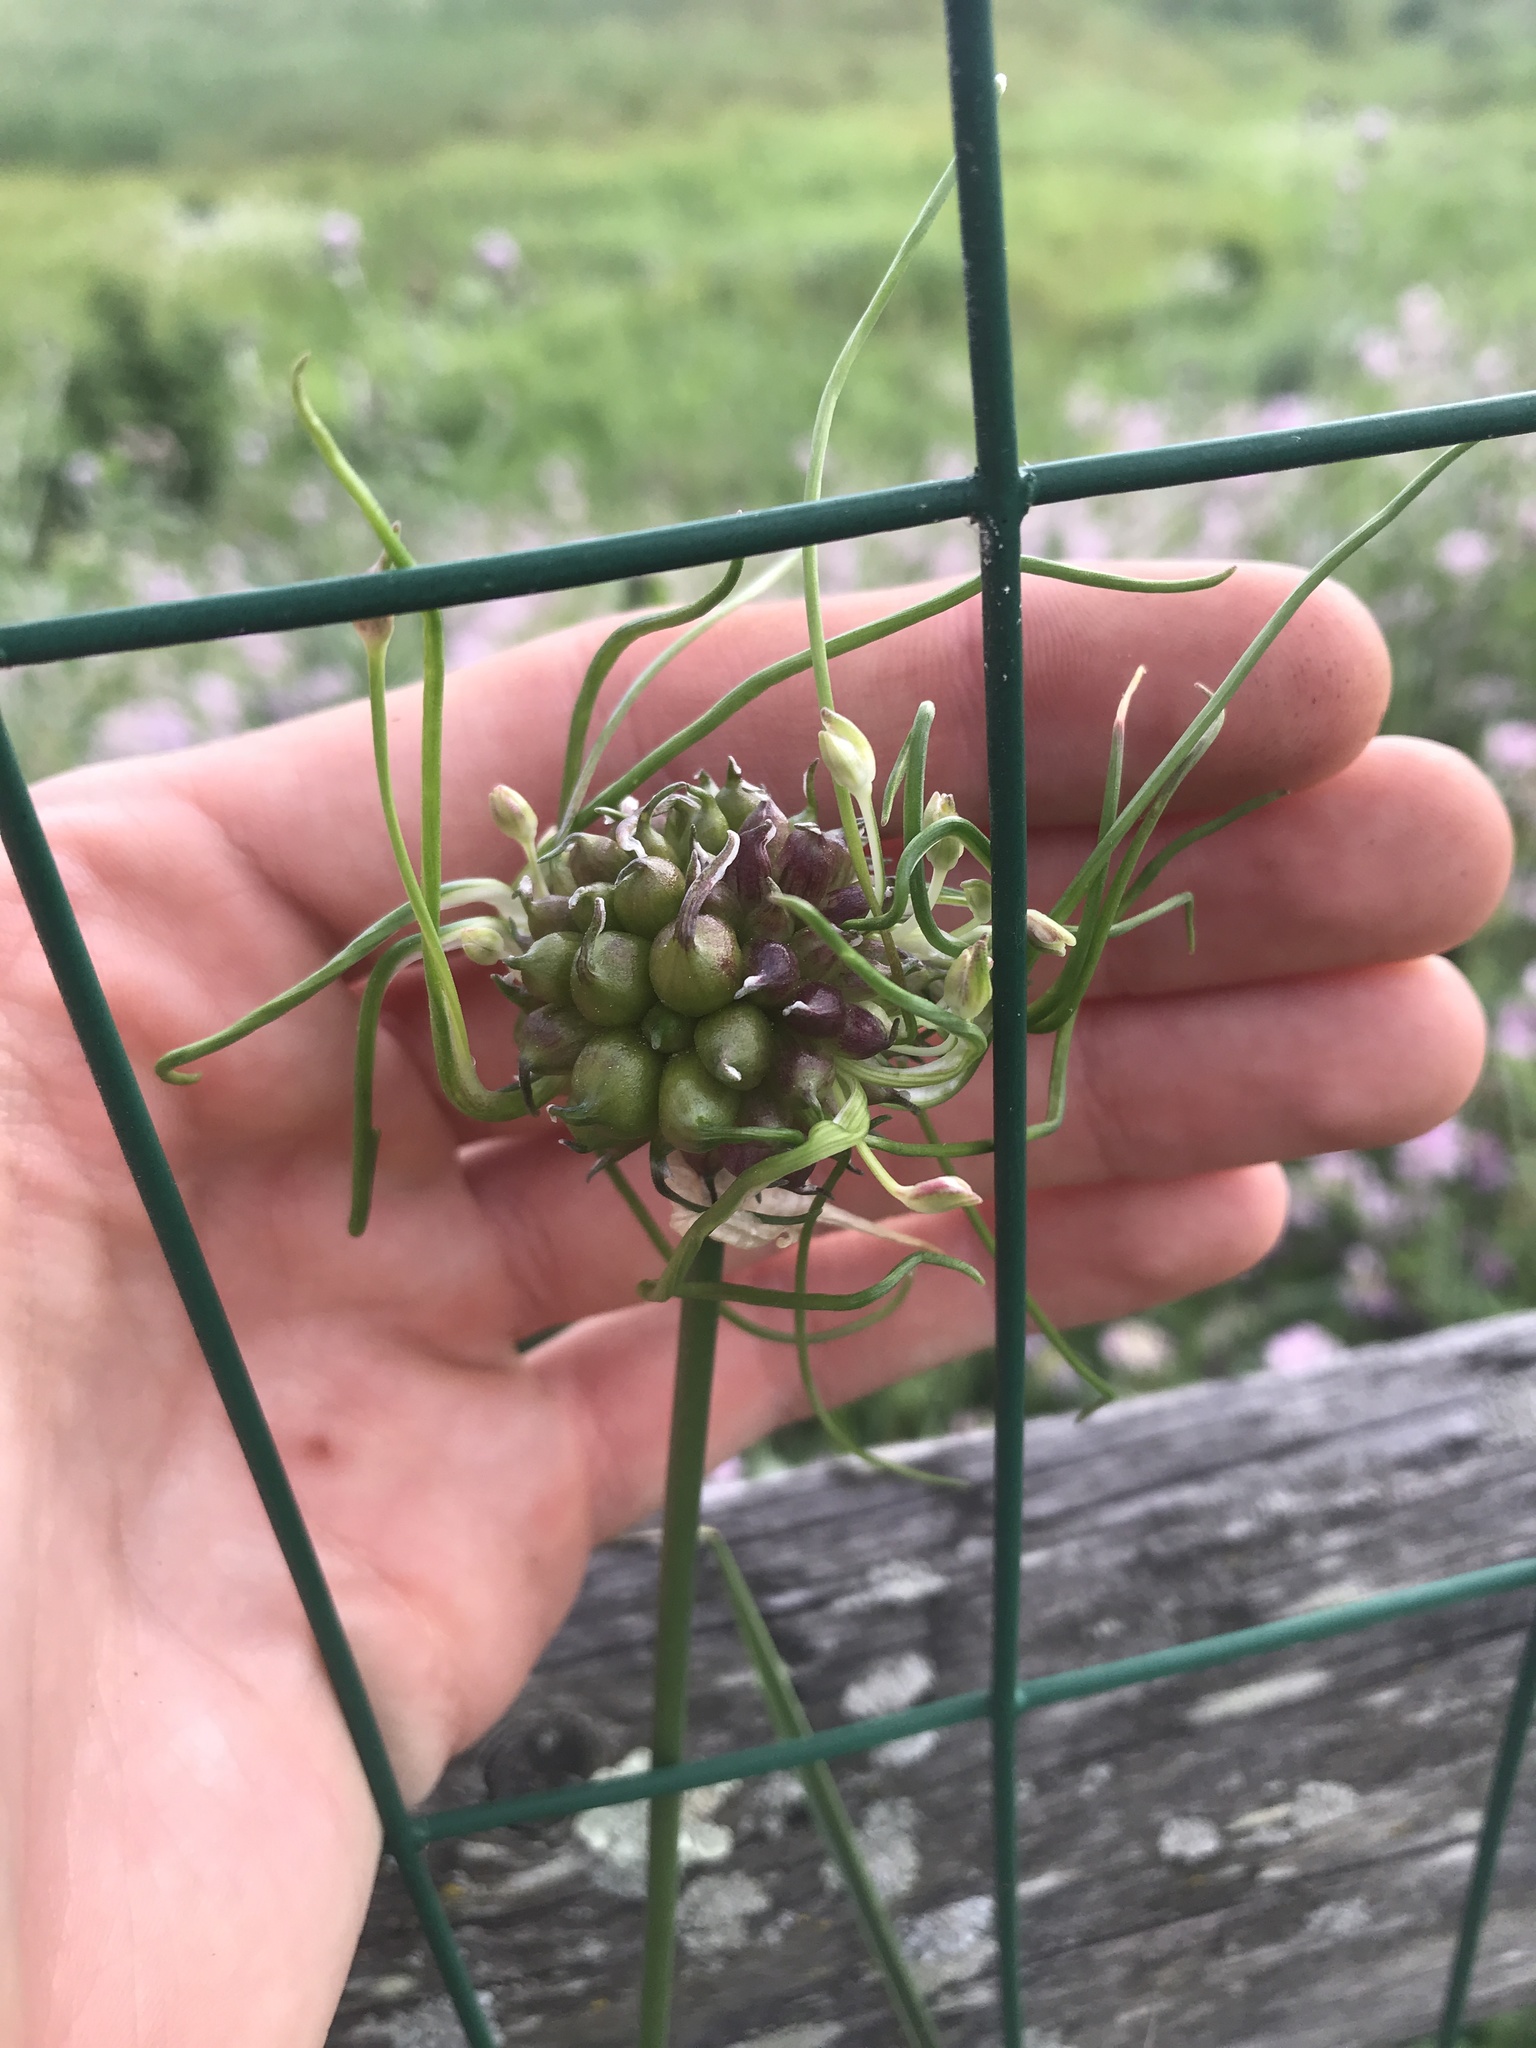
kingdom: Plantae
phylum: Tracheophyta
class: Liliopsida
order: Asparagales
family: Amaryllidaceae
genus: Allium
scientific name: Allium vineale
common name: Crow garlic
